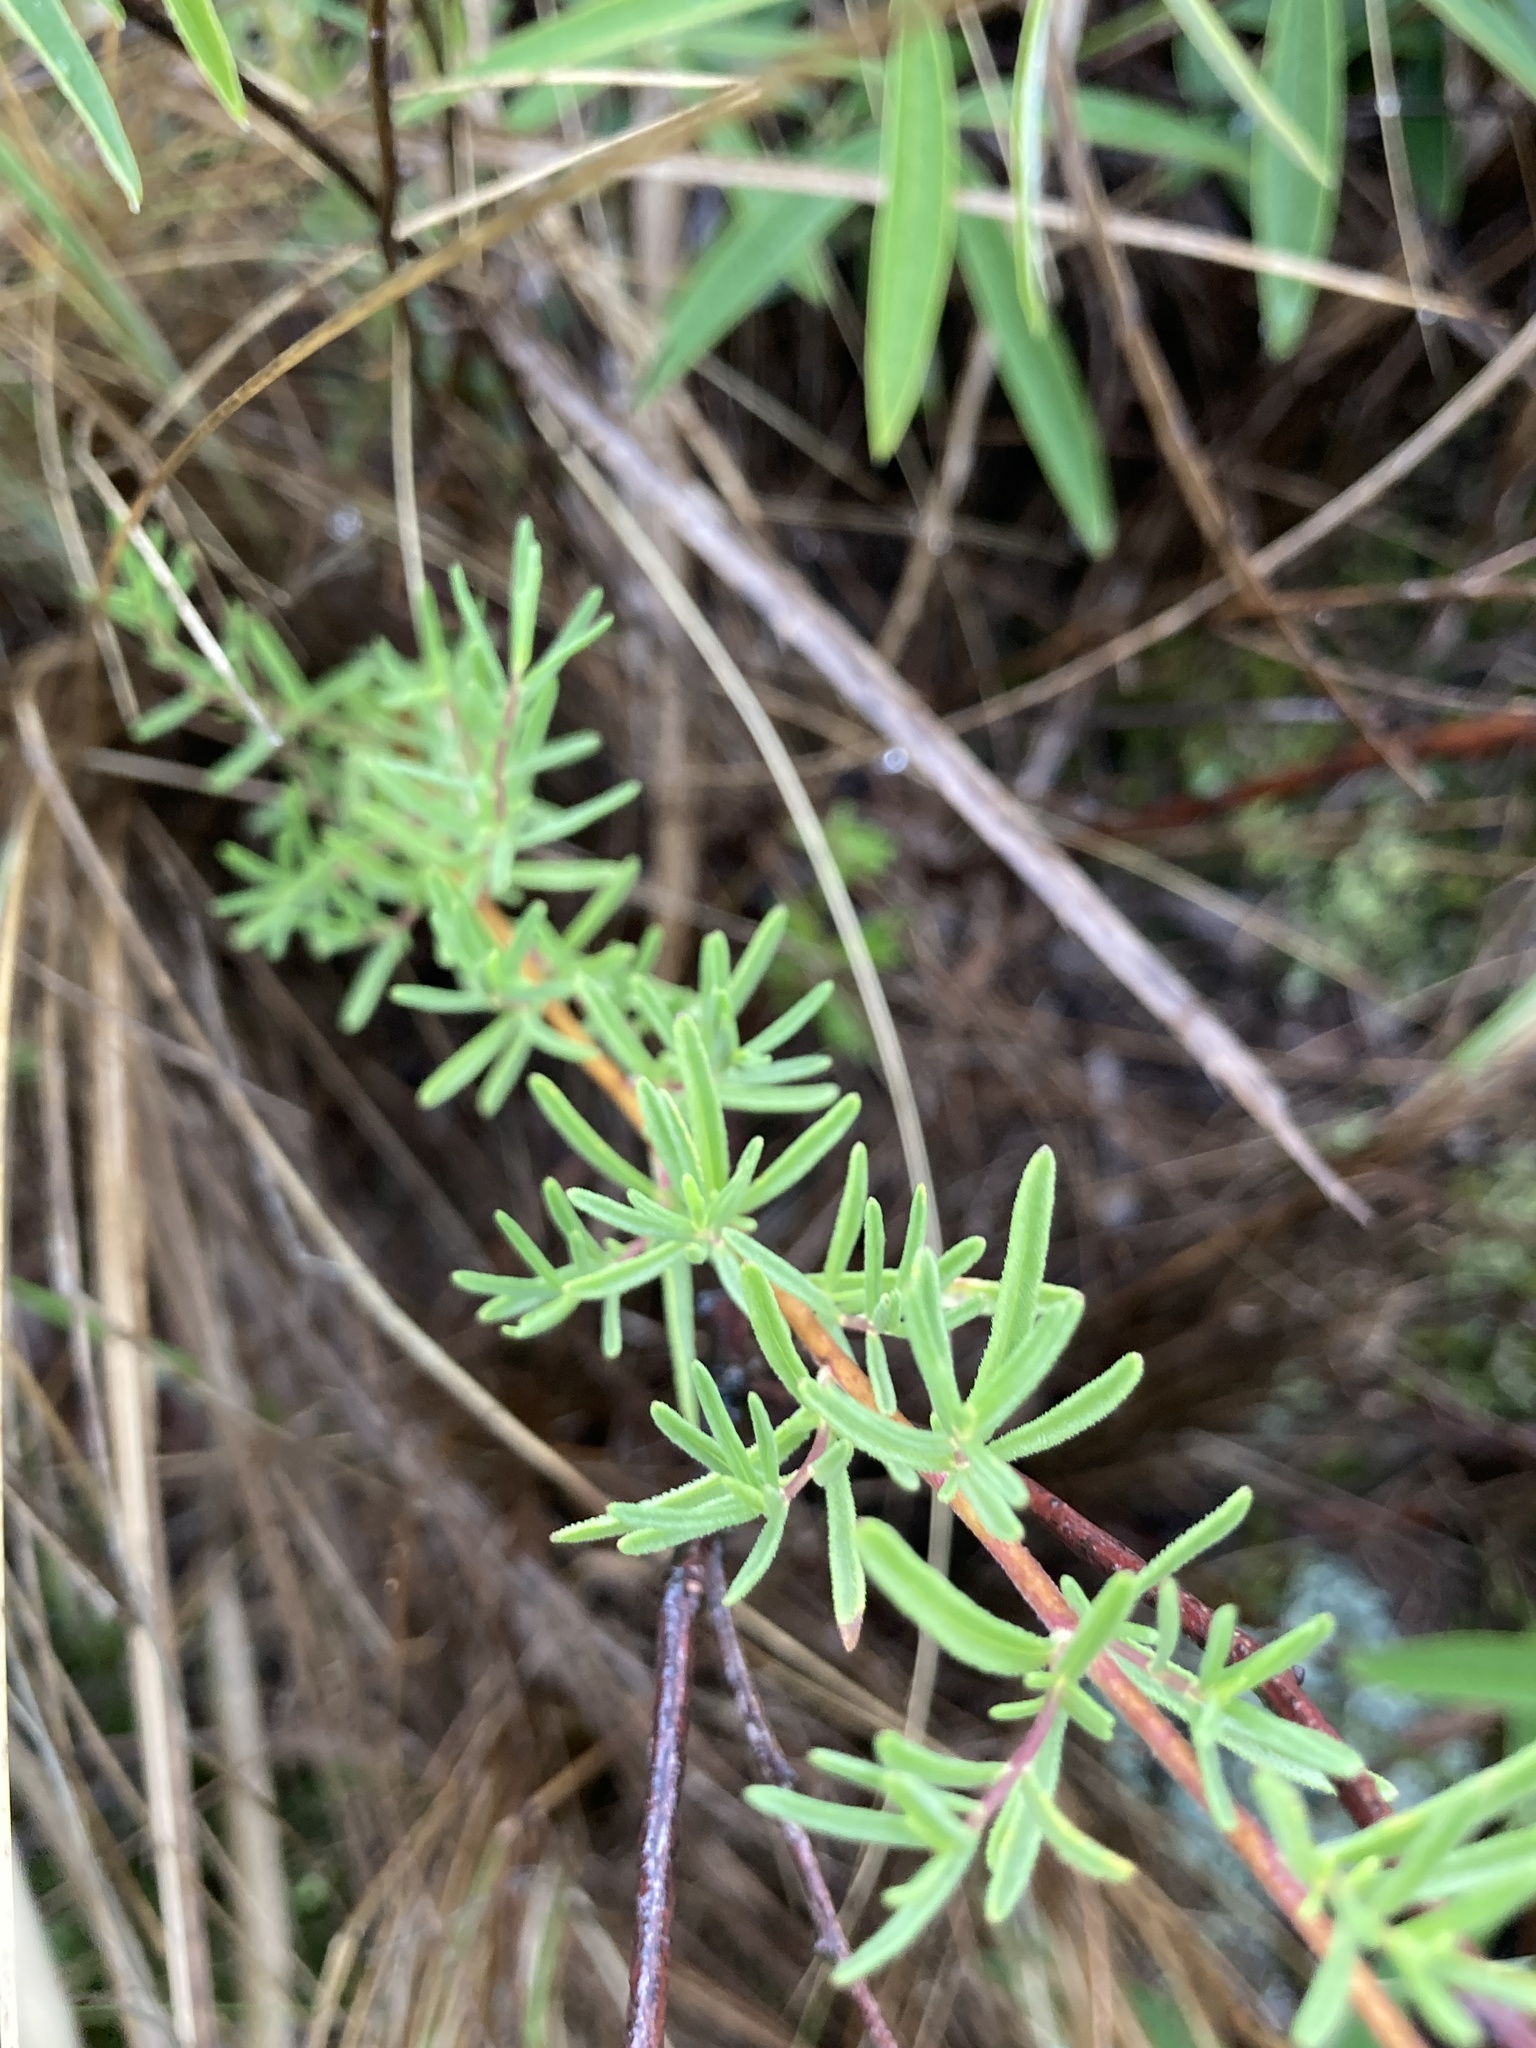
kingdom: Plantae
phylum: Tracheophyta
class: Magnoliopsida
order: Asterales
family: Asteraceae
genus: Stevia
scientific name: Stevia satureifolia
